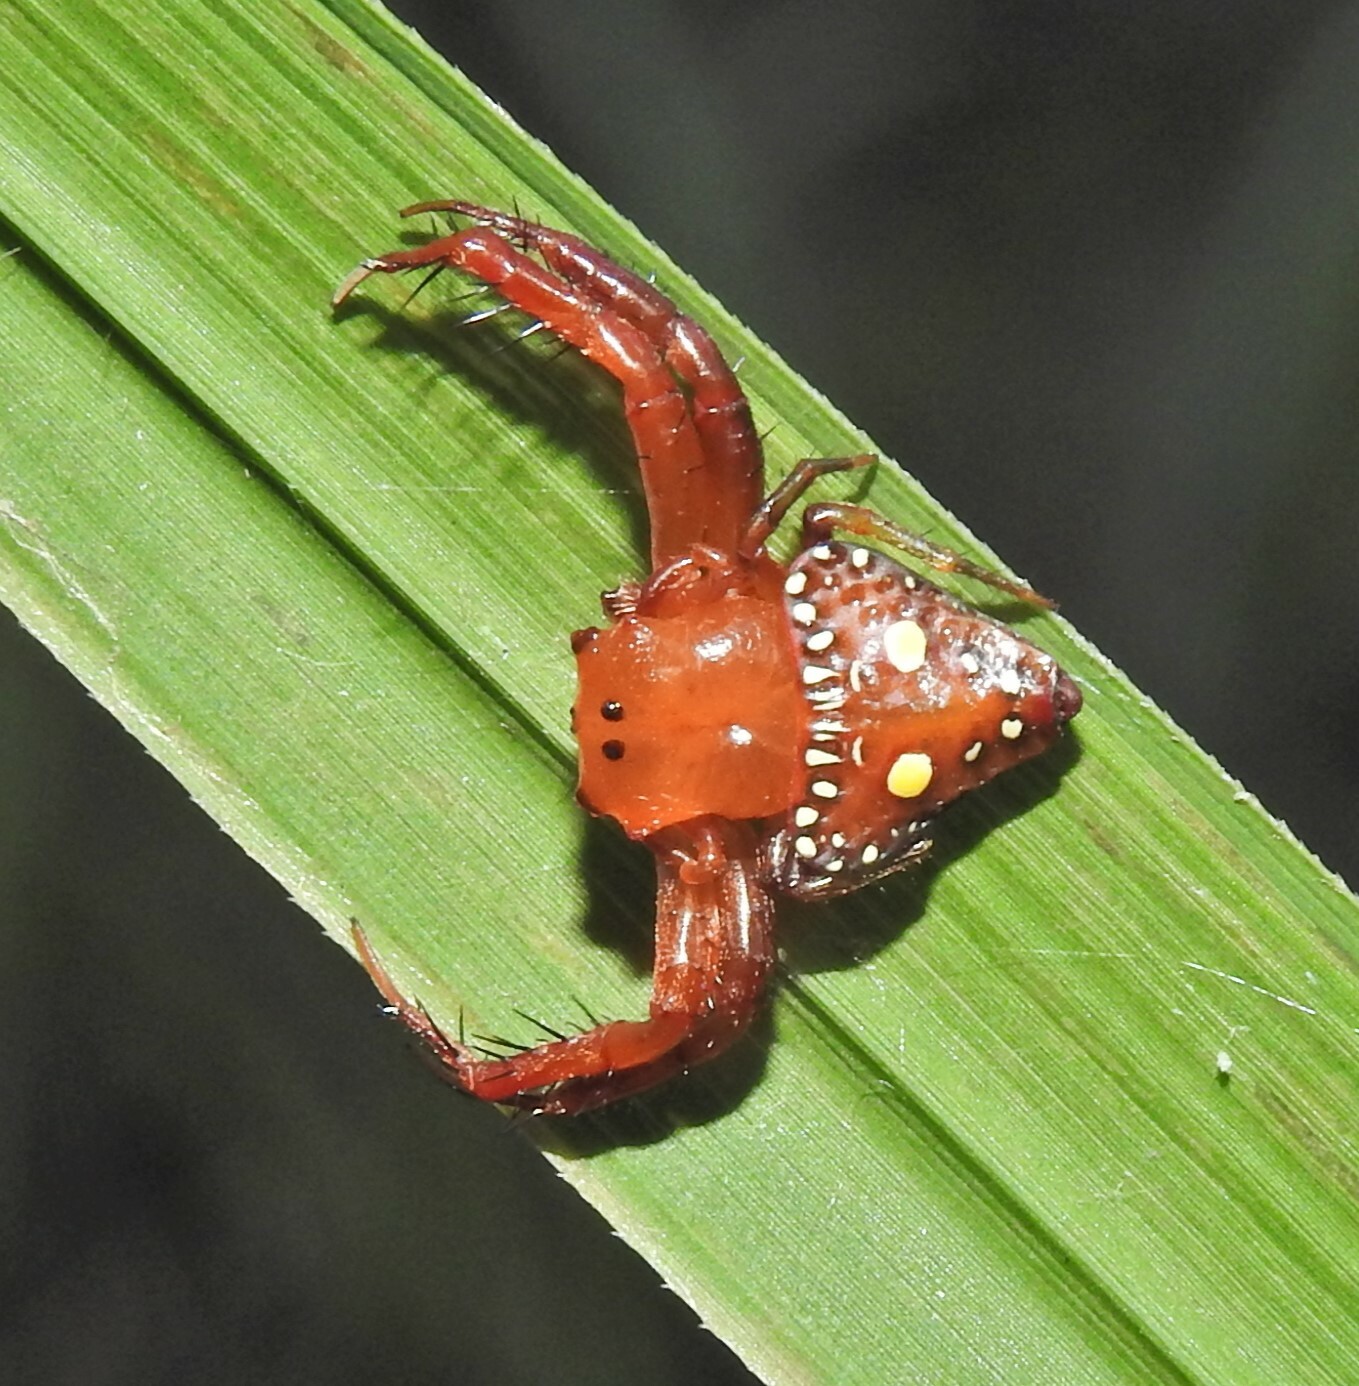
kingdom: Animalia
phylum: Arthropoda
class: Arachnida
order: Araneae
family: Arkyidae
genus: Arkys
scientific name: Arkys lancearius
